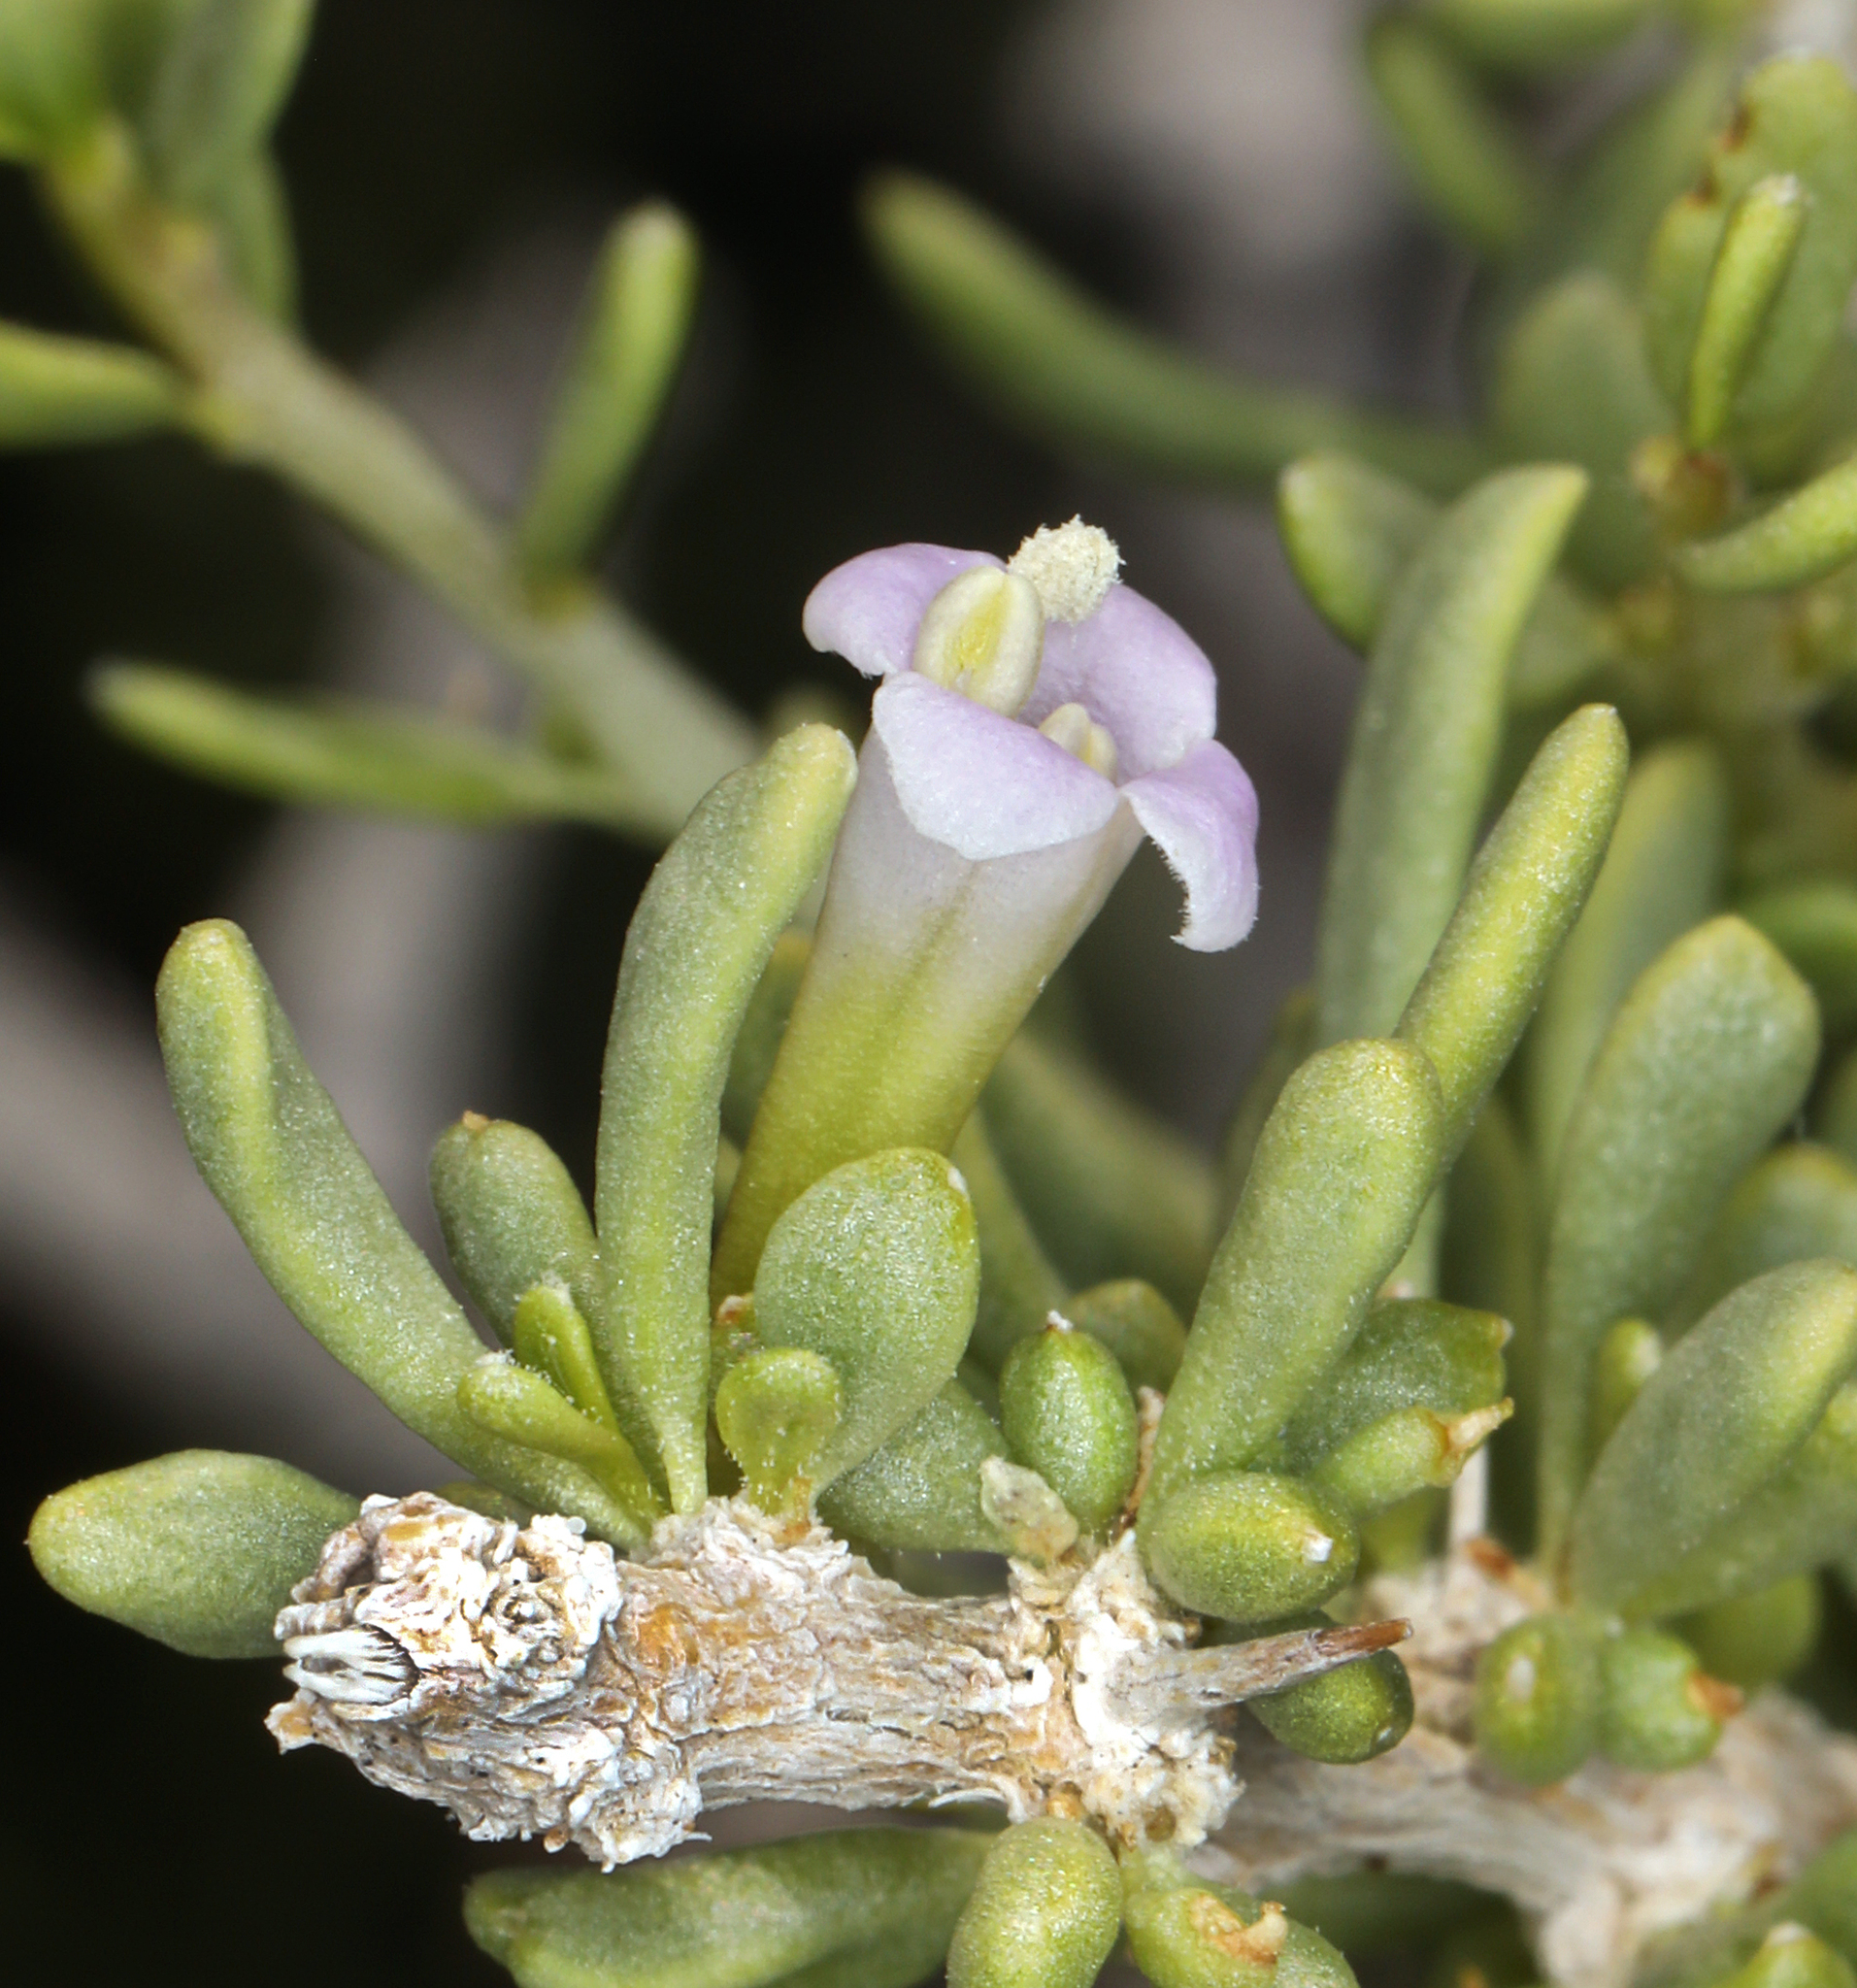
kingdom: Plantae
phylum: Tracheophyta
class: Magnoliopsida
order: Solanales
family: Solanaceae
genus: Lycium
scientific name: Lycium andersonii
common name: Water-jacket
